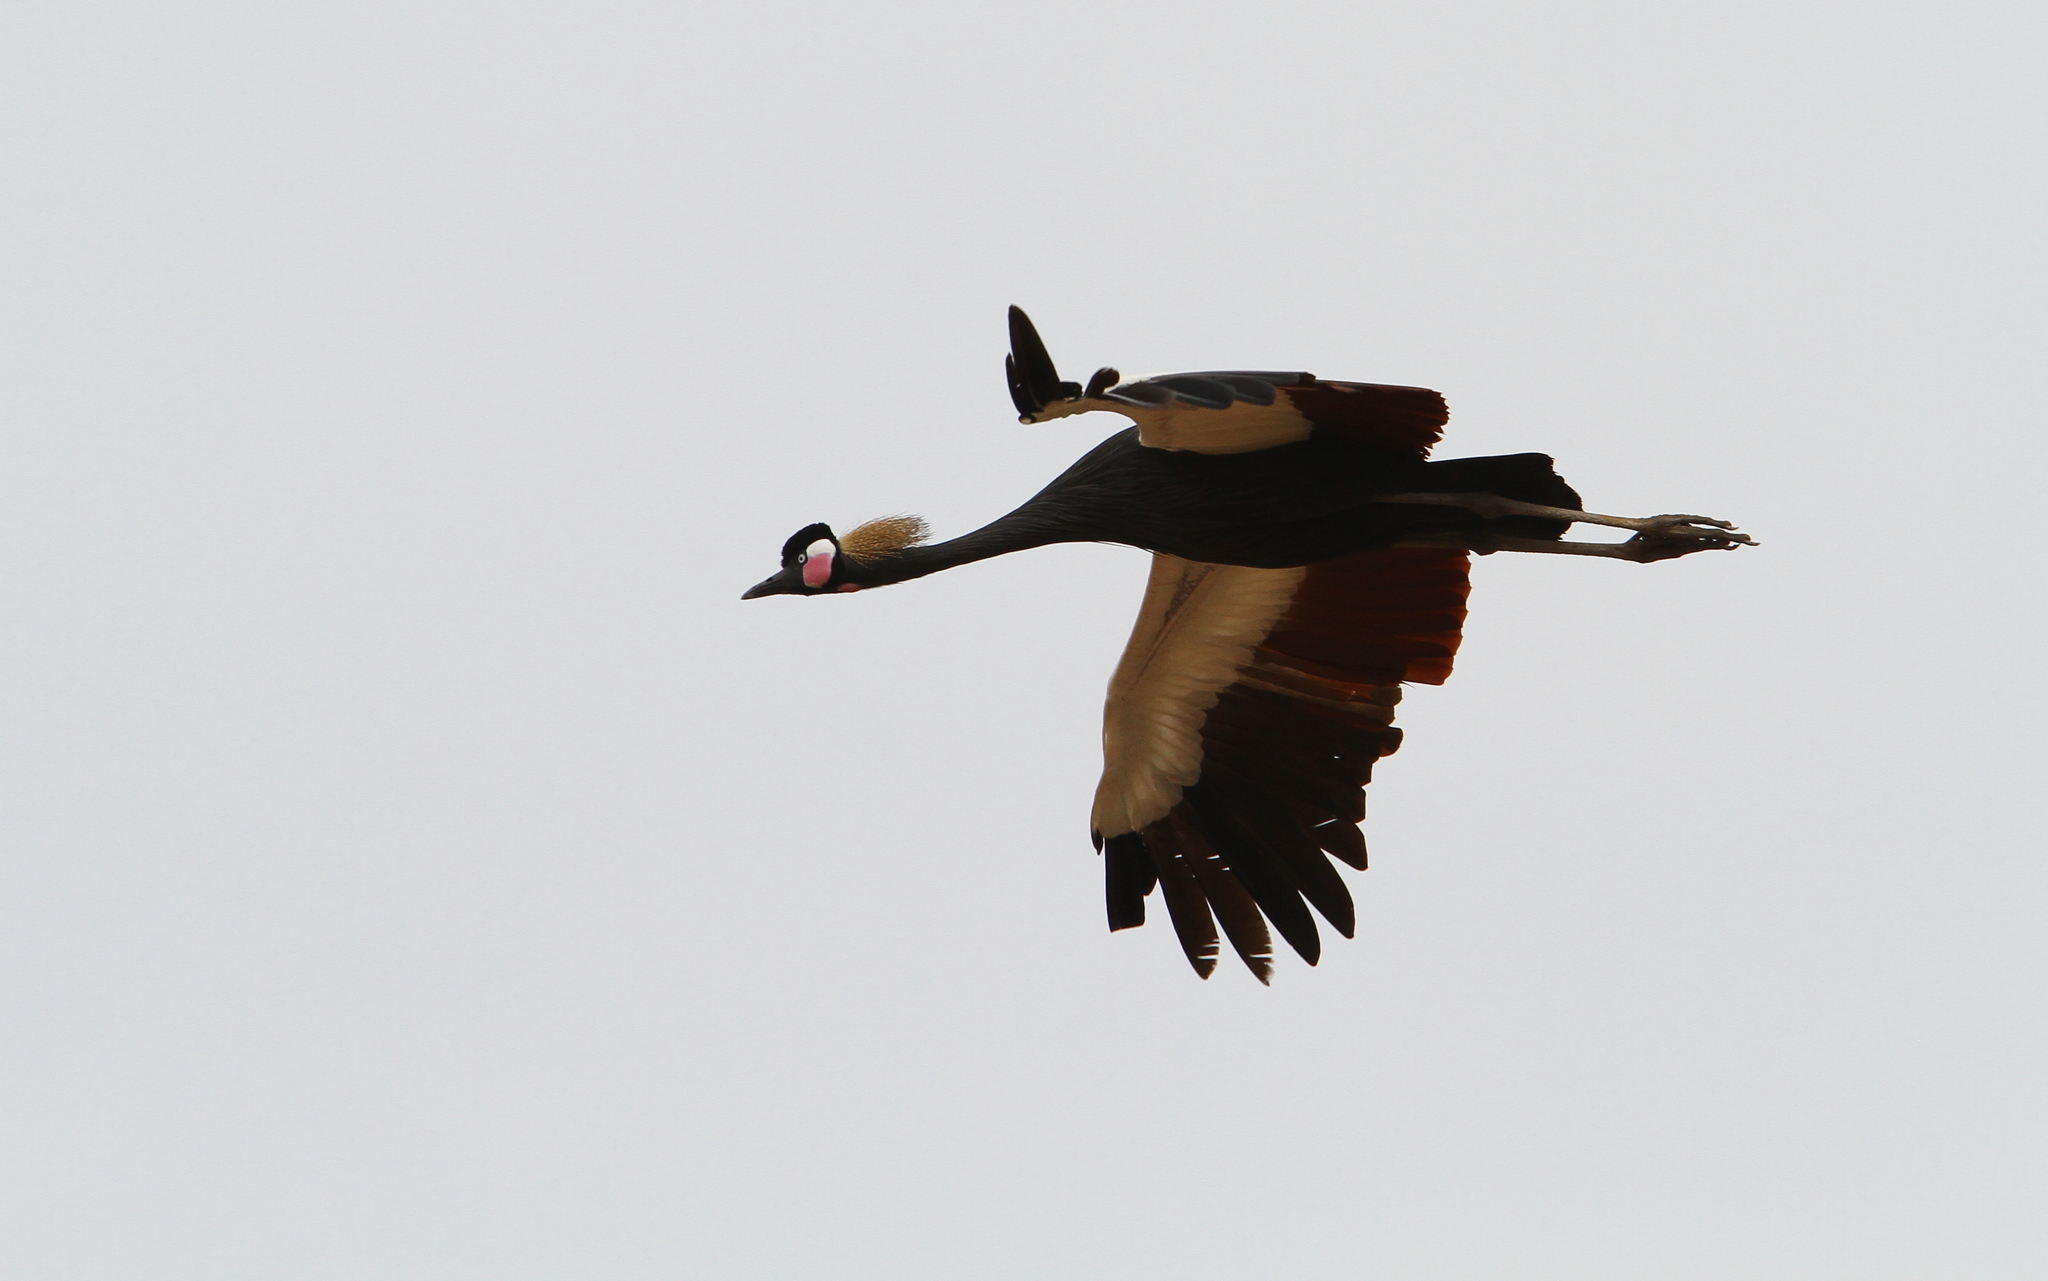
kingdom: Animalia
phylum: Chordata
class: Aves
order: Gruiformes
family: Gruidae
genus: Balearica
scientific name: Balearica pavonina
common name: Black crowned crane
